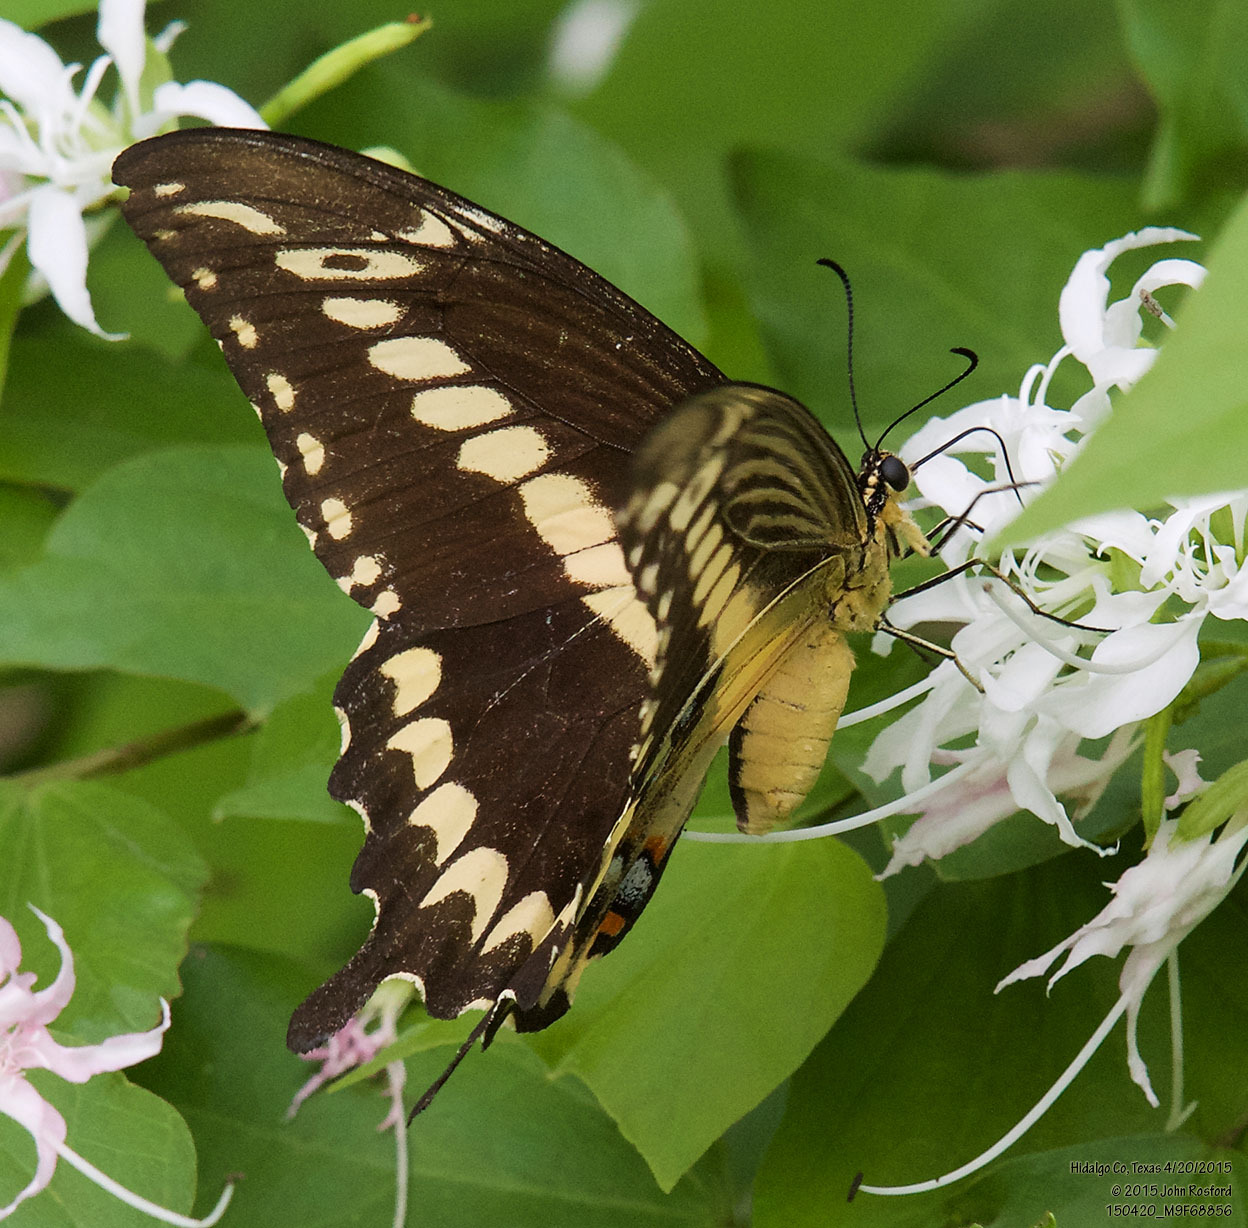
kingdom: Animalia
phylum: Arthropoda
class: Insecta
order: Lepidoptera
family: Papilionidae
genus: Papilio
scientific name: Papilio ornythion
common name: Ornythion swallowtail
